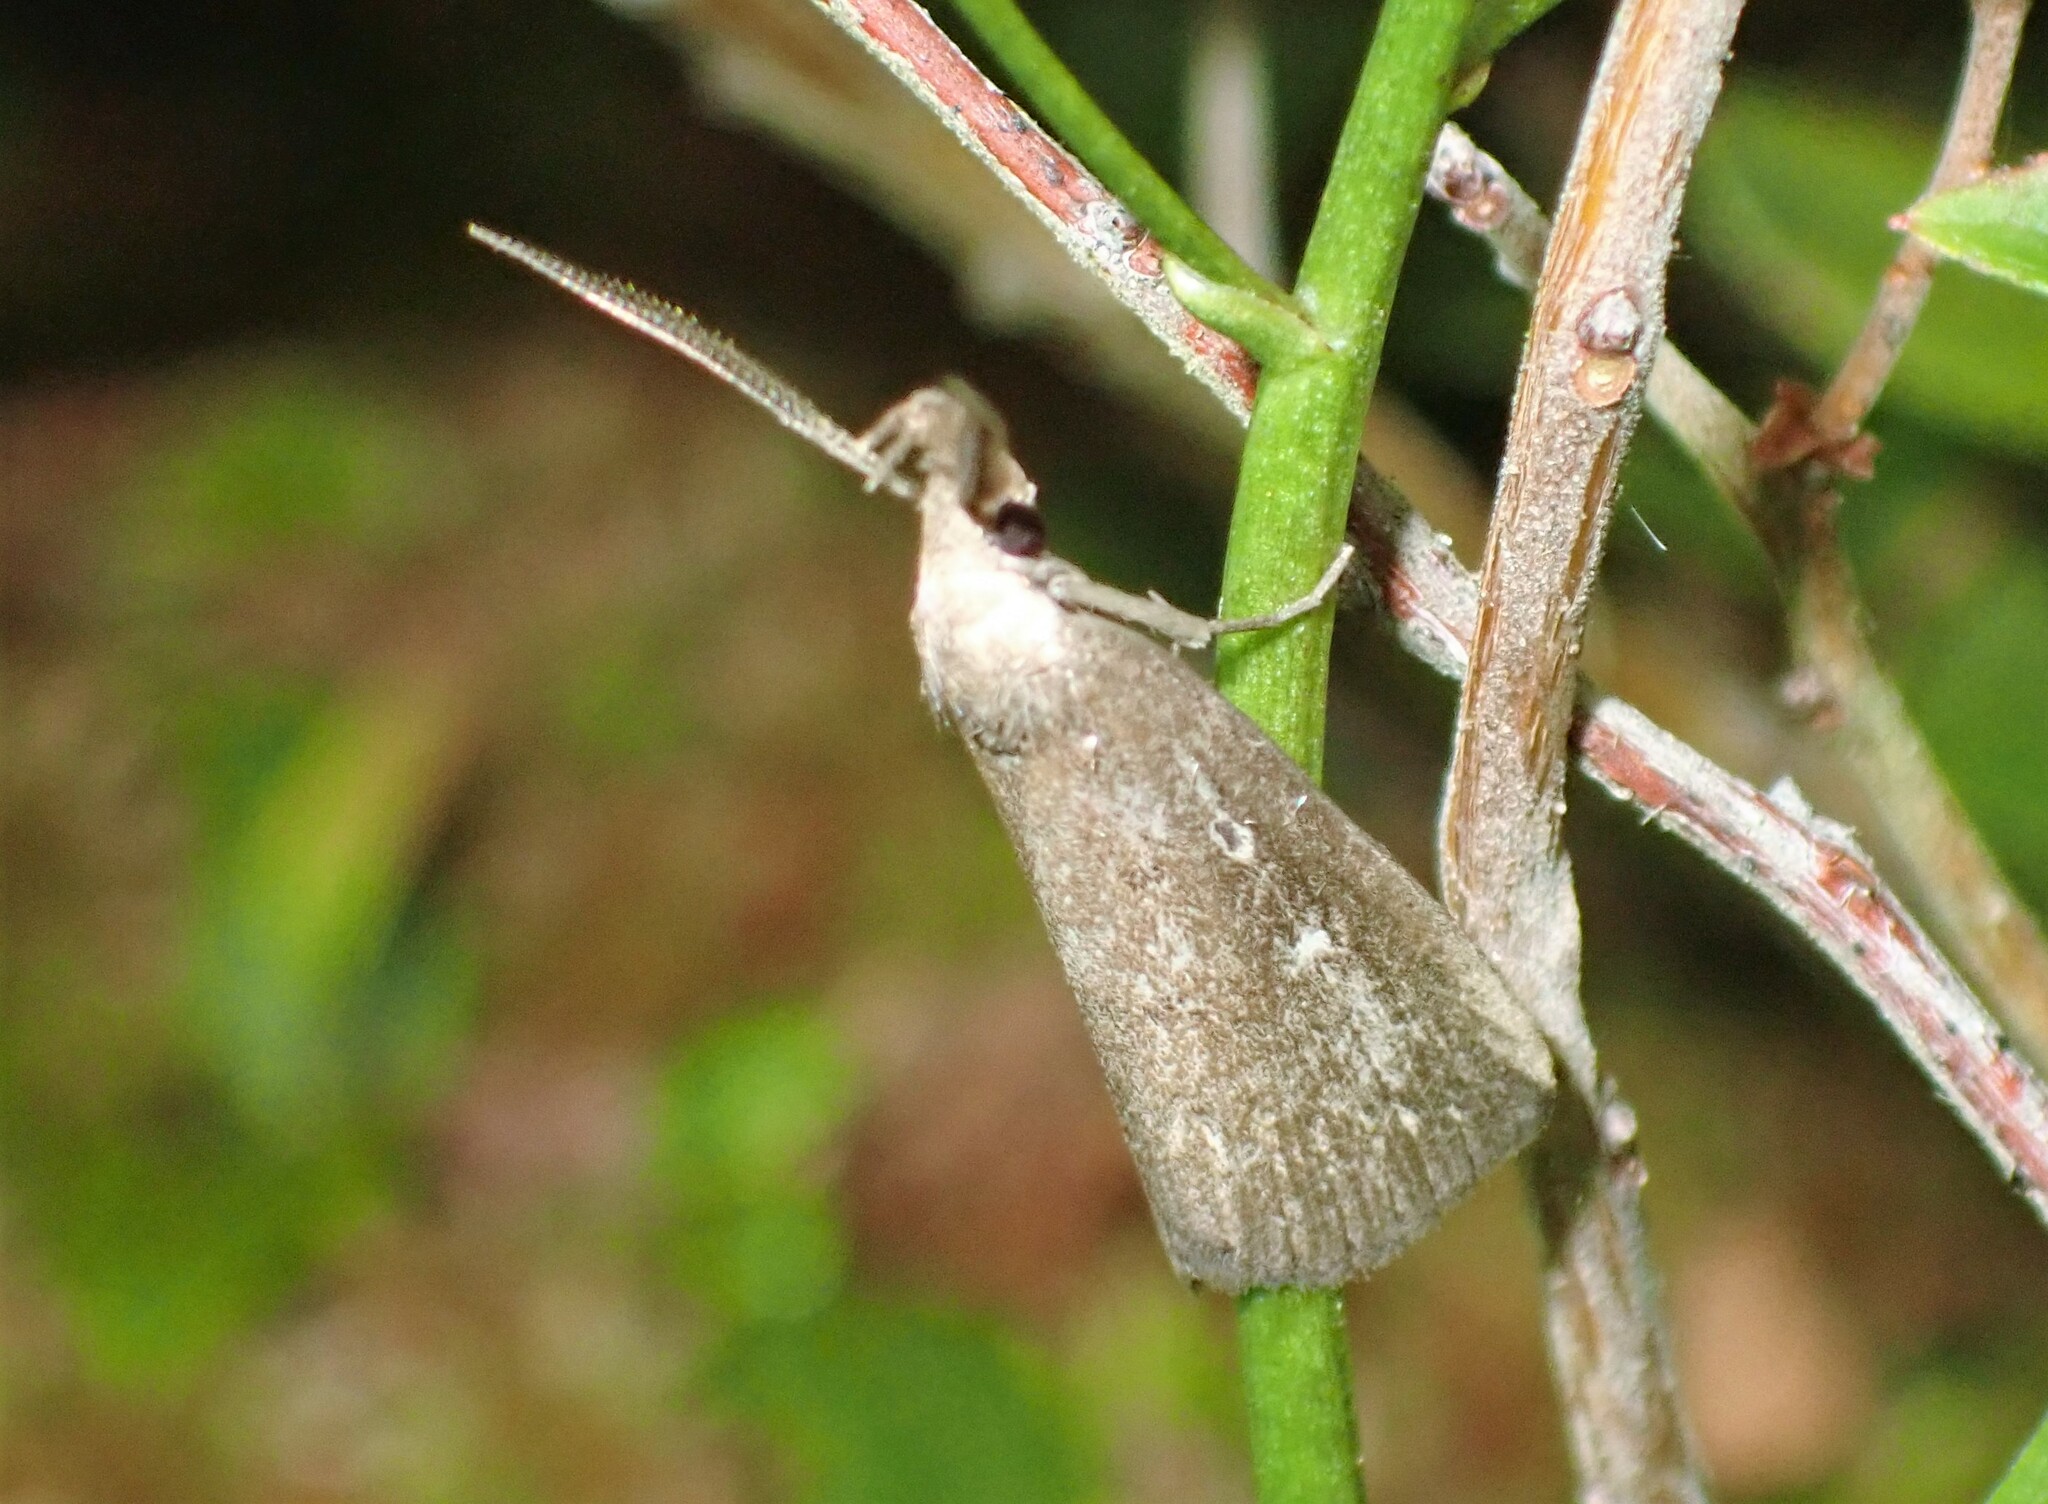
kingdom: Animalia
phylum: Arthropoda
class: Insecta
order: Lepidoptera
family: Erebidae
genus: Macrochilo
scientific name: Macrochilo orciferalis
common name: Bronzy owlet
